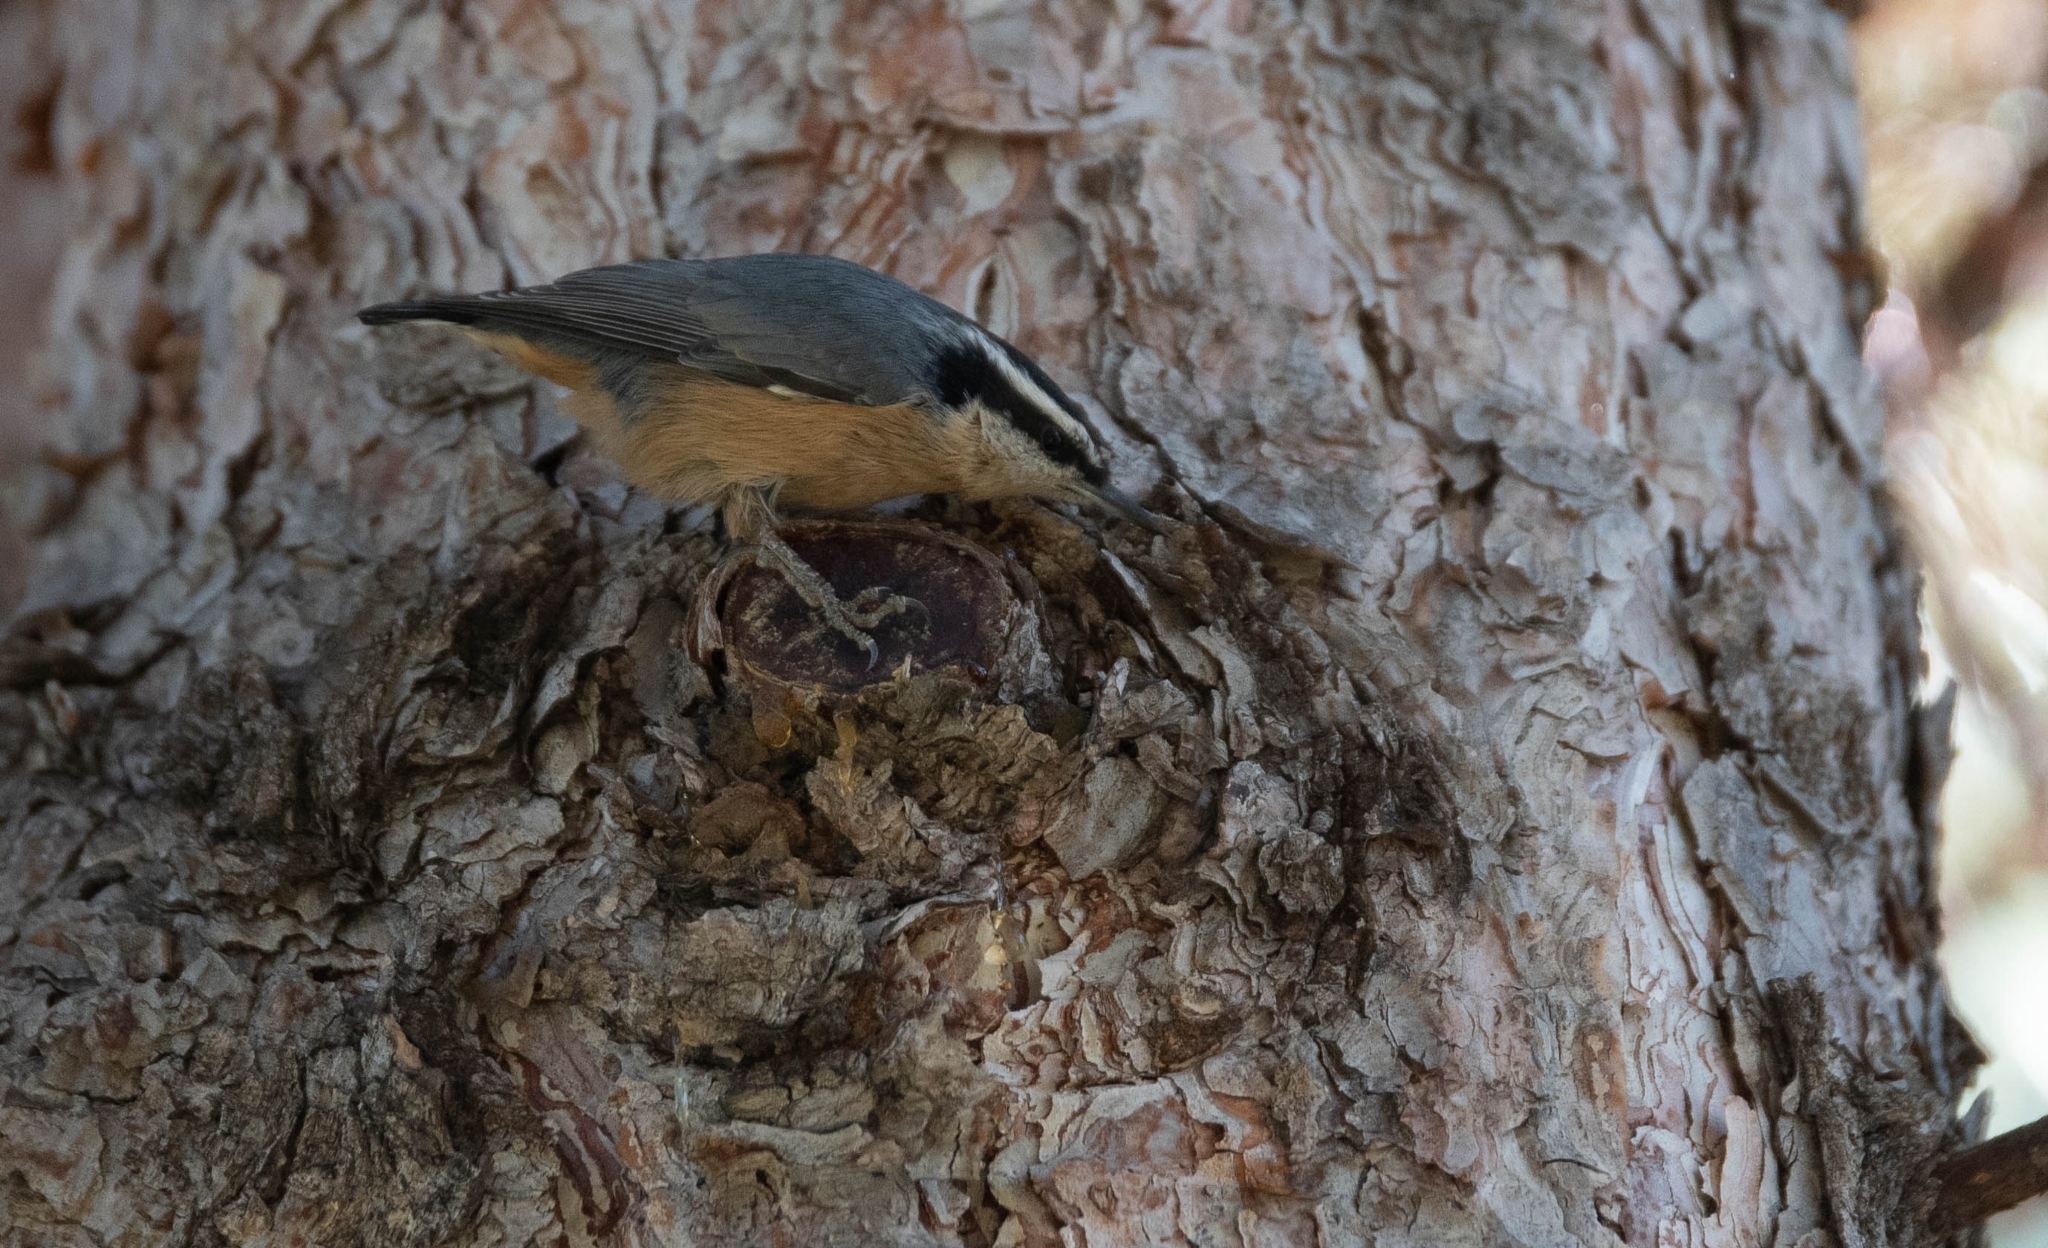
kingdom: Animalia
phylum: Chordata
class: Aves
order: Passeriformes
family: Sittidae
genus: Sitta
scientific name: Sitta canadensis
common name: Red-breasted nuthatch
